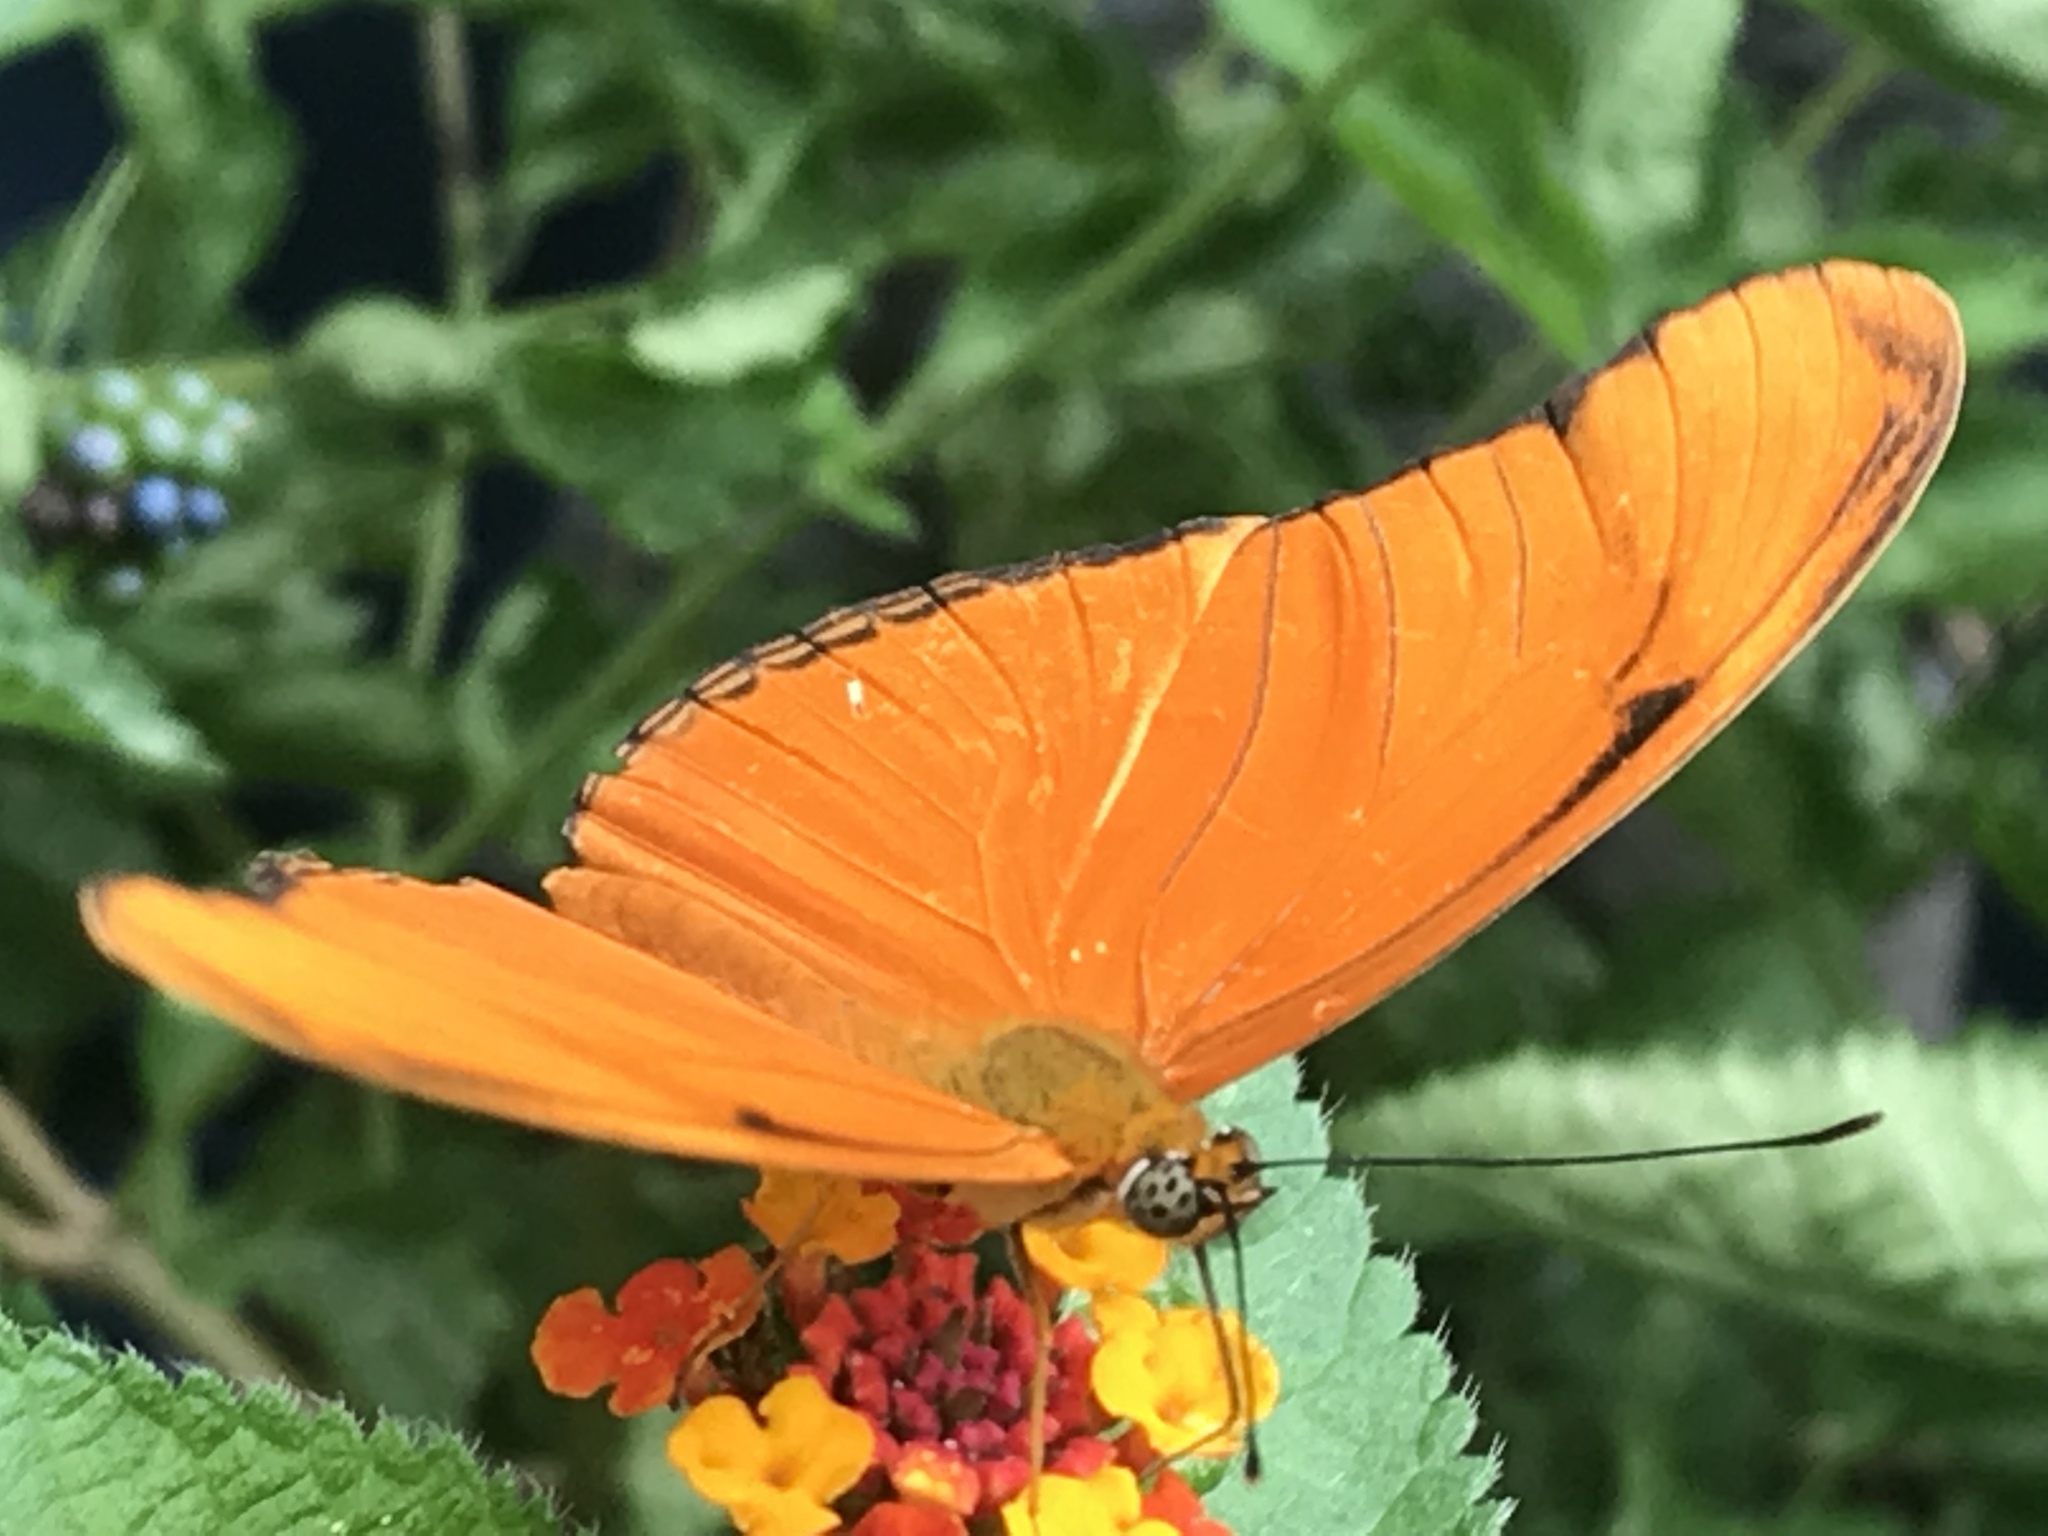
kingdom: Animalia
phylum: Arthropoda
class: Insecta
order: Lepidoptera
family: Nymphalidae
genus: Dryas
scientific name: Dryas iulia
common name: Flambeau
